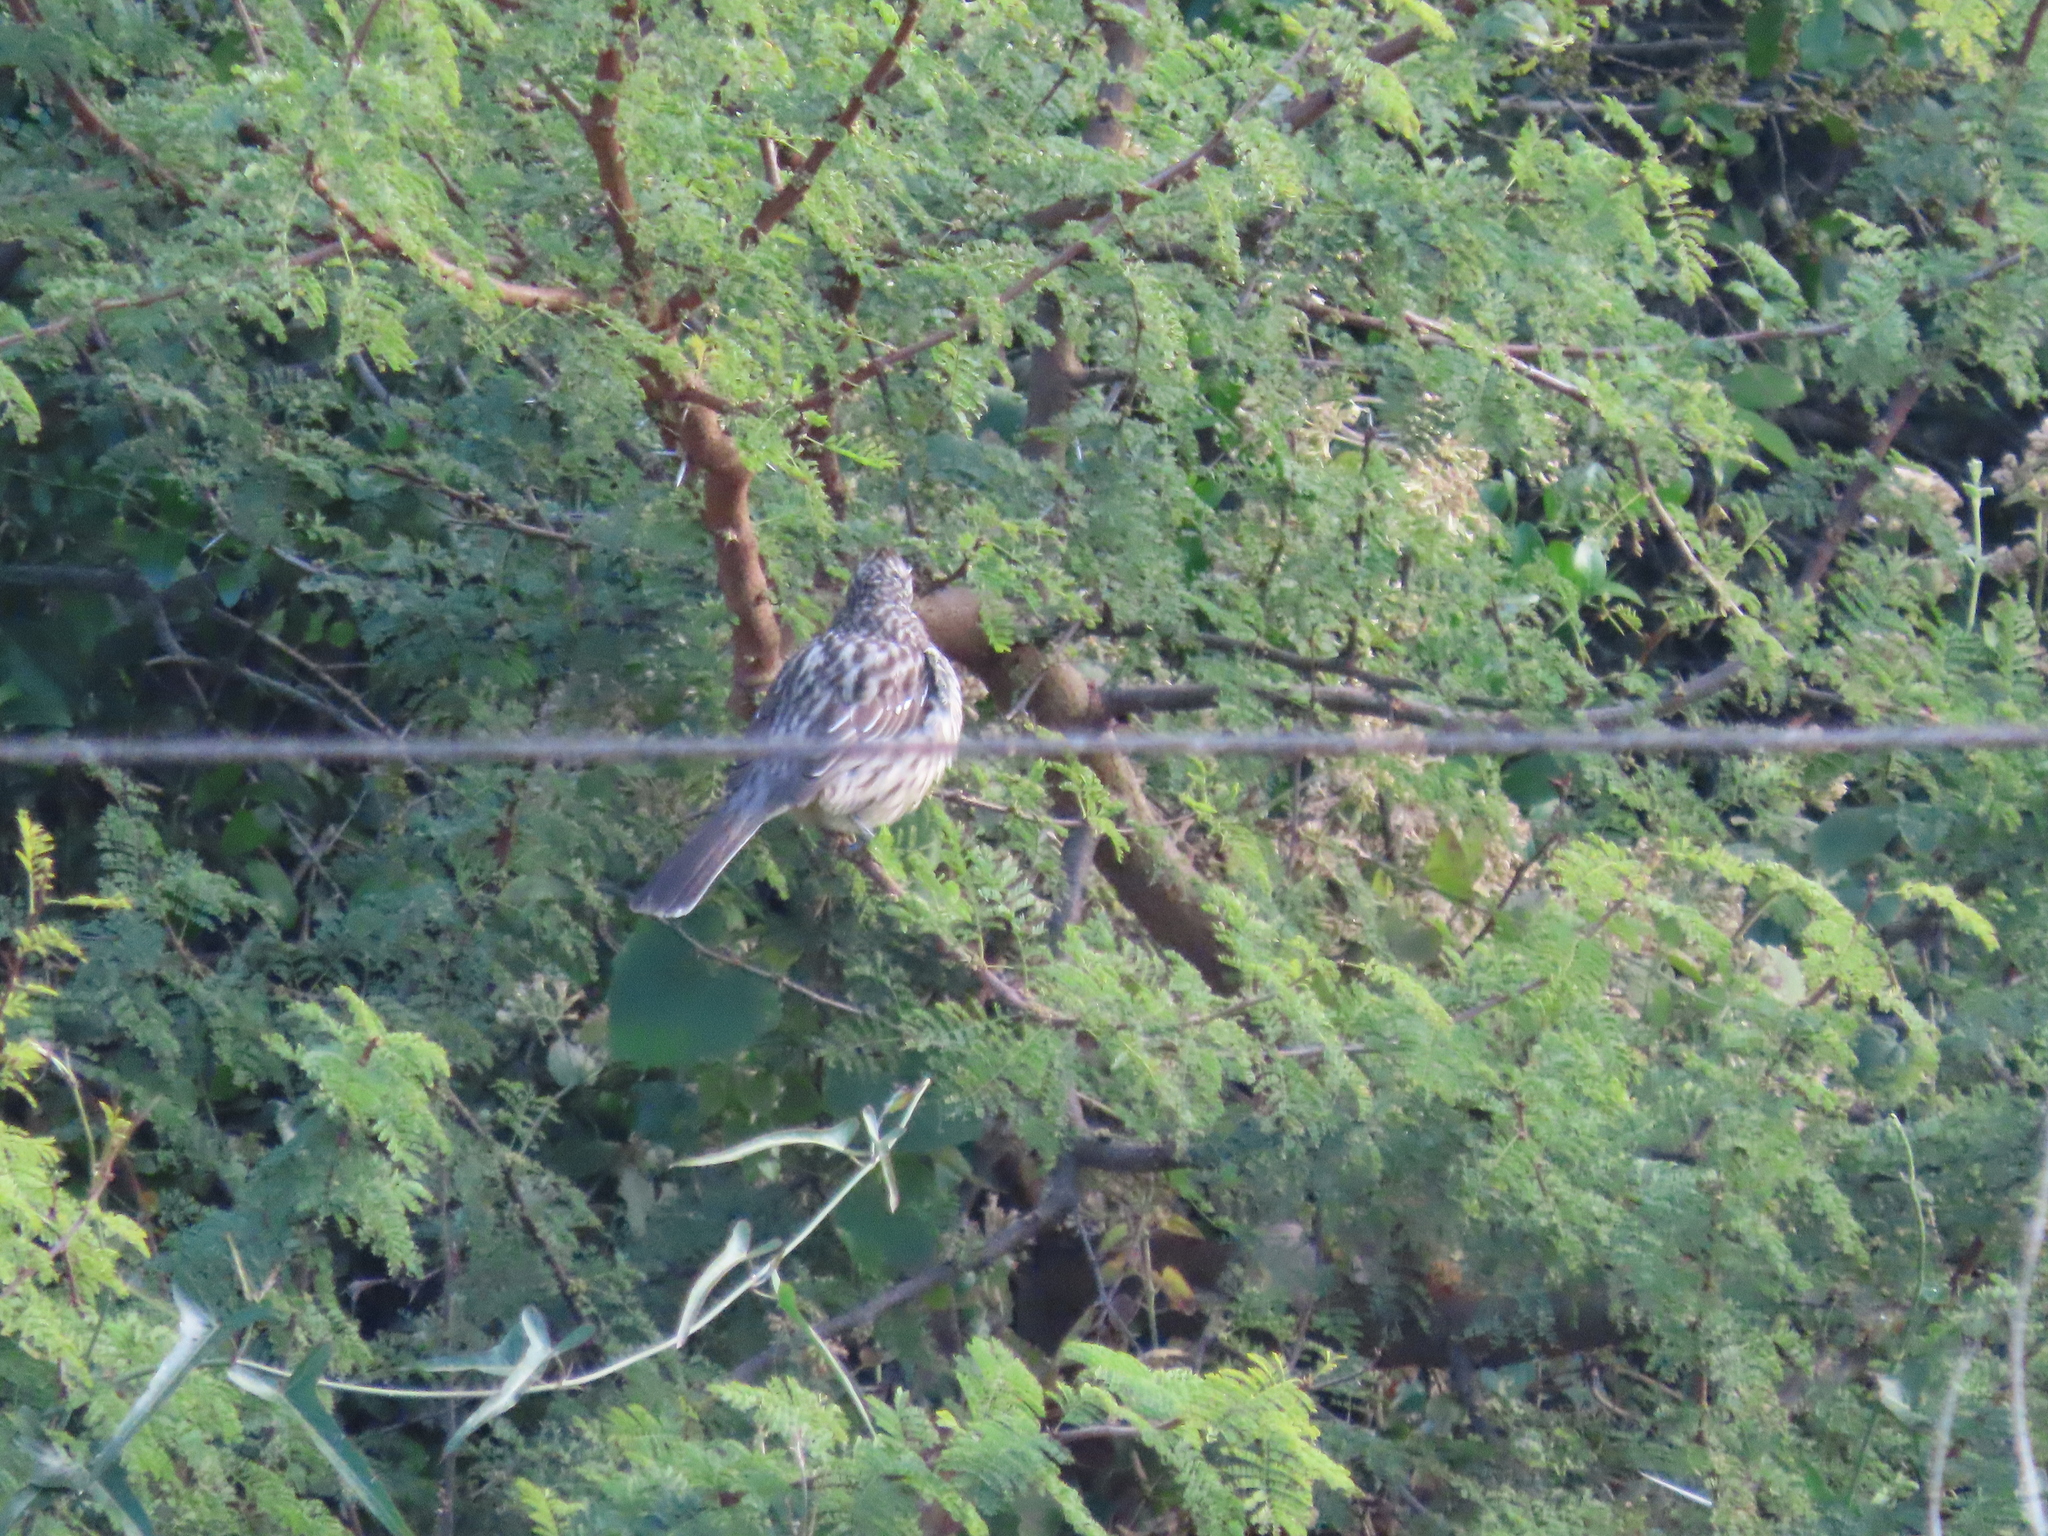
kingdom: Animalia
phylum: Chordata
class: Aves
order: Passeriformes
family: Cotingidae
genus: Phytotoma
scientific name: Phytotoma rutila
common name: White-tipped plantcutter
